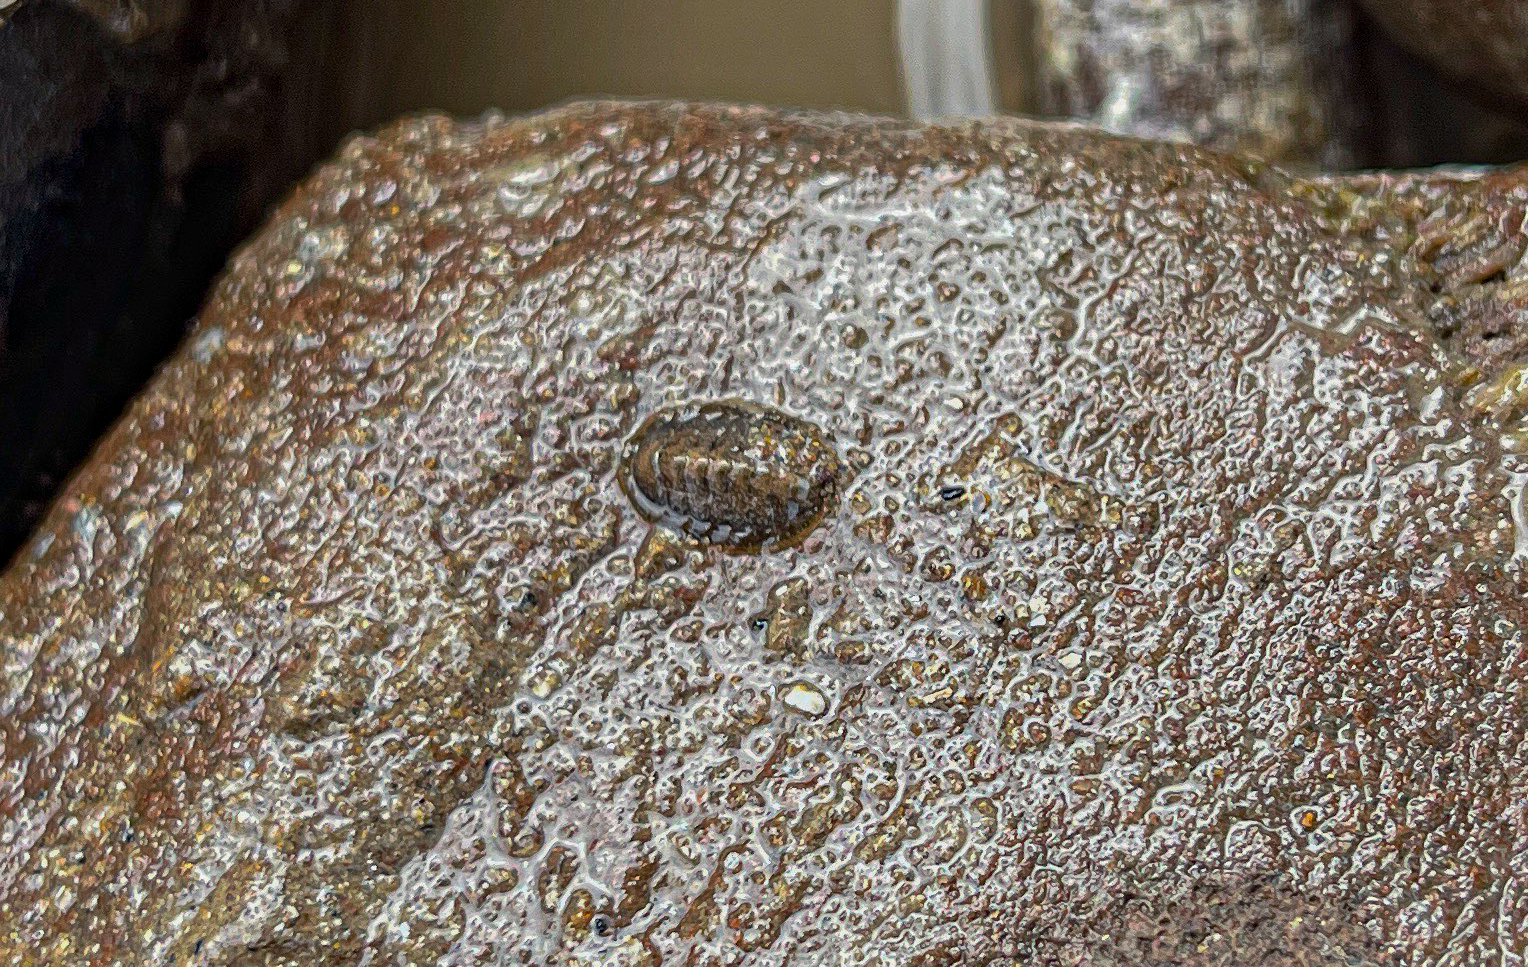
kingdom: Animalia
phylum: Mollusca
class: Polyplacophora
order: Chitonida
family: Tonicellidae
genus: Lepidochitona
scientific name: Lepidochitona cinerea
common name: Cinereous chiton
